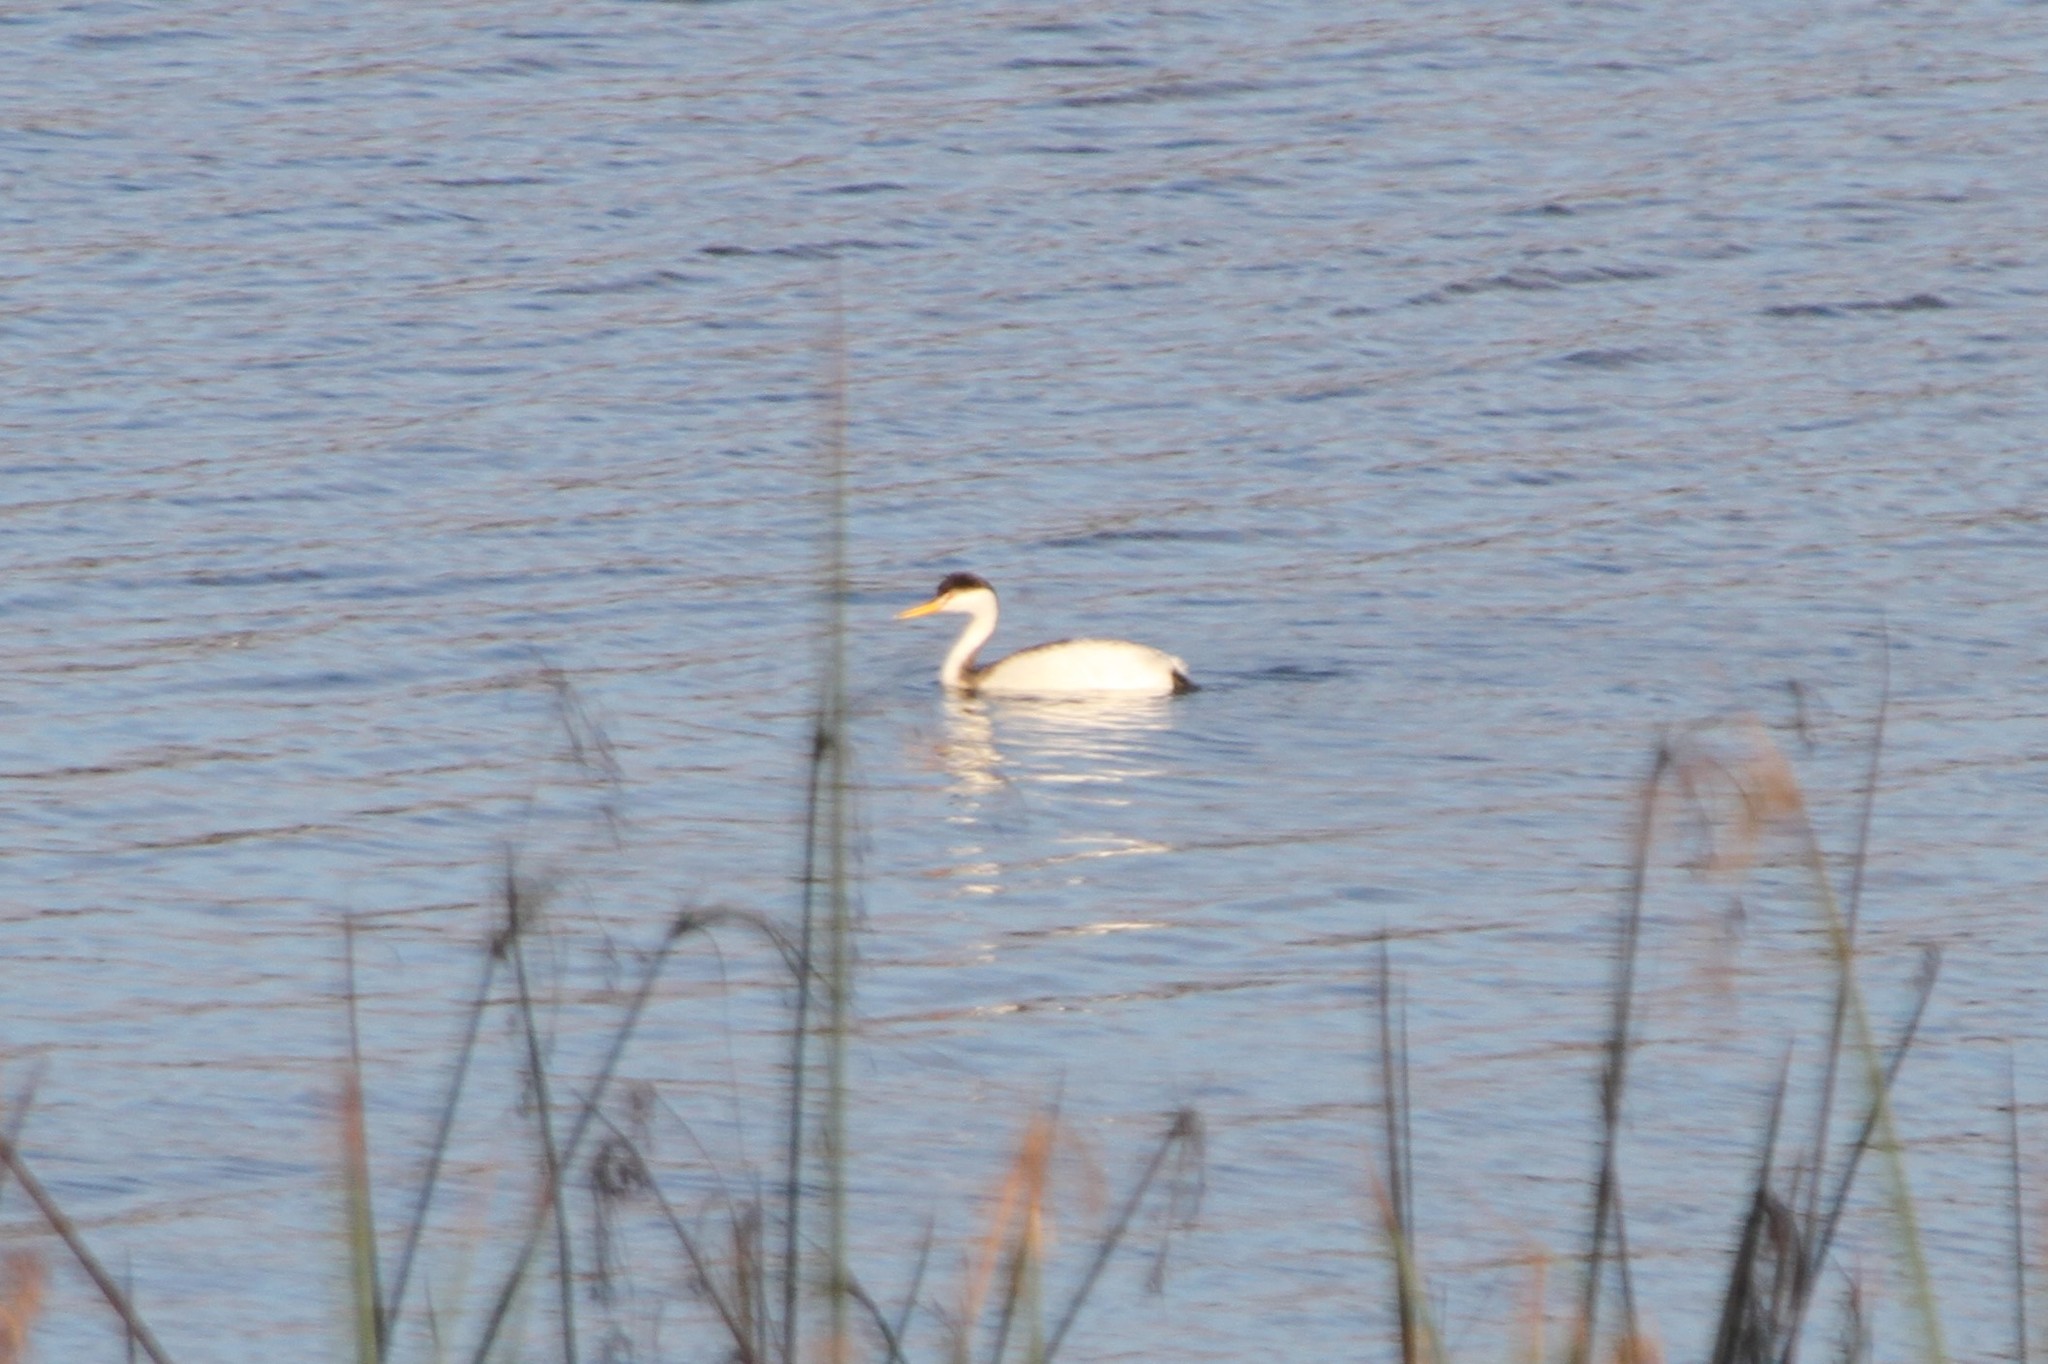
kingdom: Animalia
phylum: Chordata
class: Aves
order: Podicipediformes
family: Podicipedidae
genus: Aechmophorus
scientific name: Aechmophorus clarkii
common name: Clark's grebe
